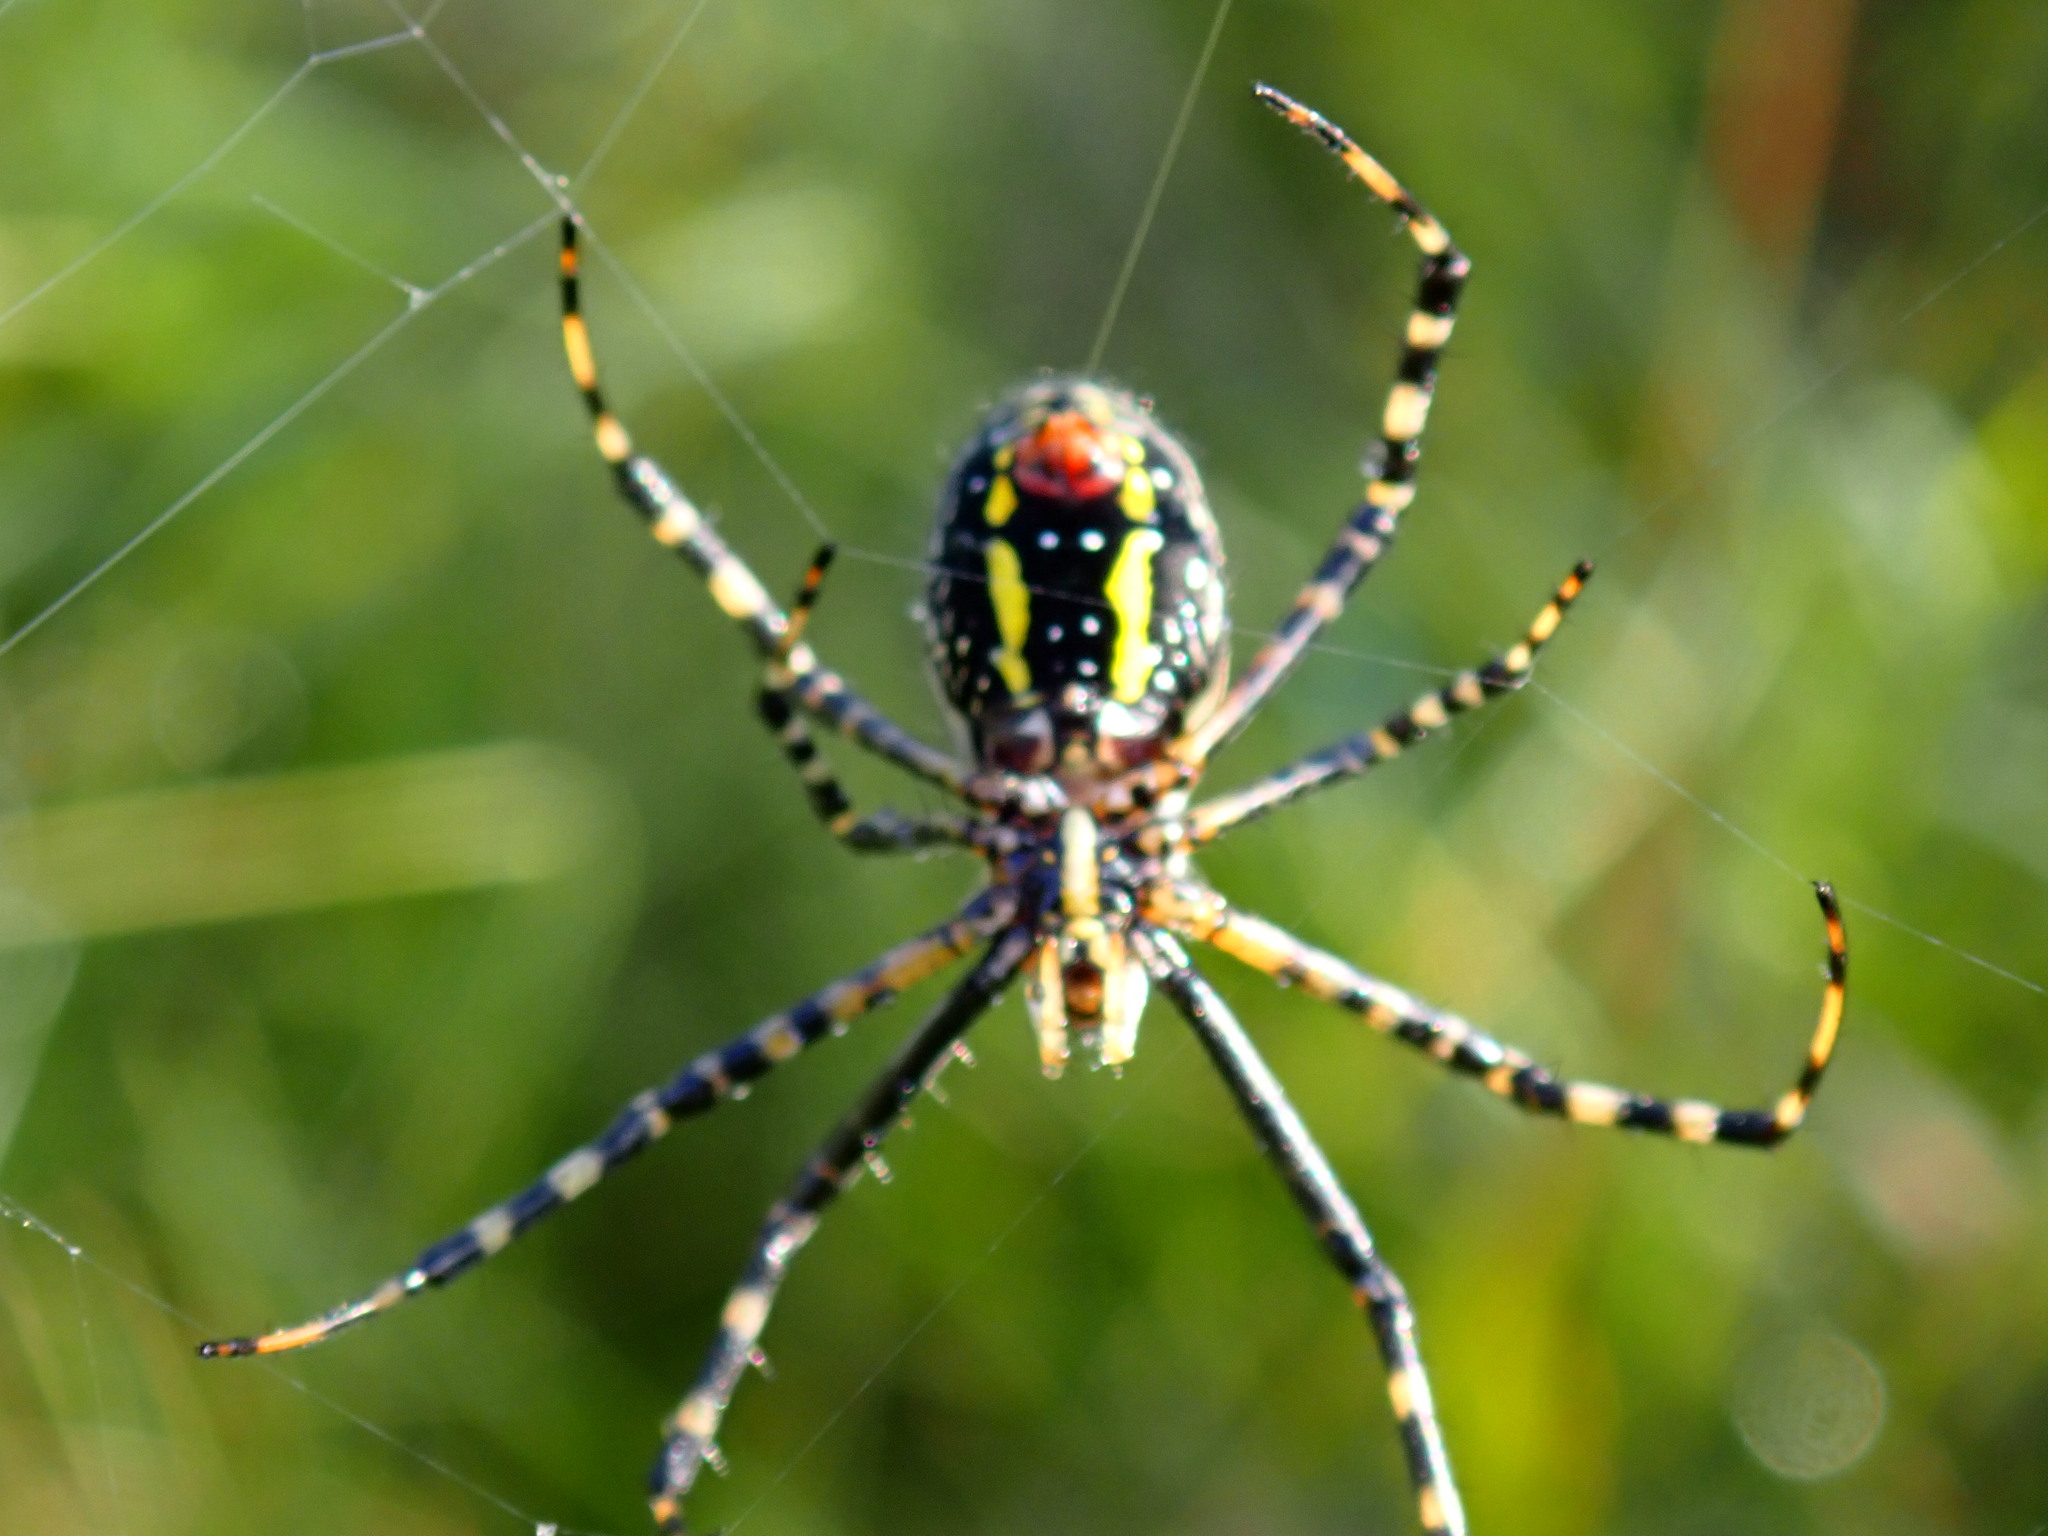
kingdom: Animalia
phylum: Arthropoda
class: Arachnida
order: Araneae
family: Araneidae
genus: Argiope
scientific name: Argiope trifasciata
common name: Banded garden spider
